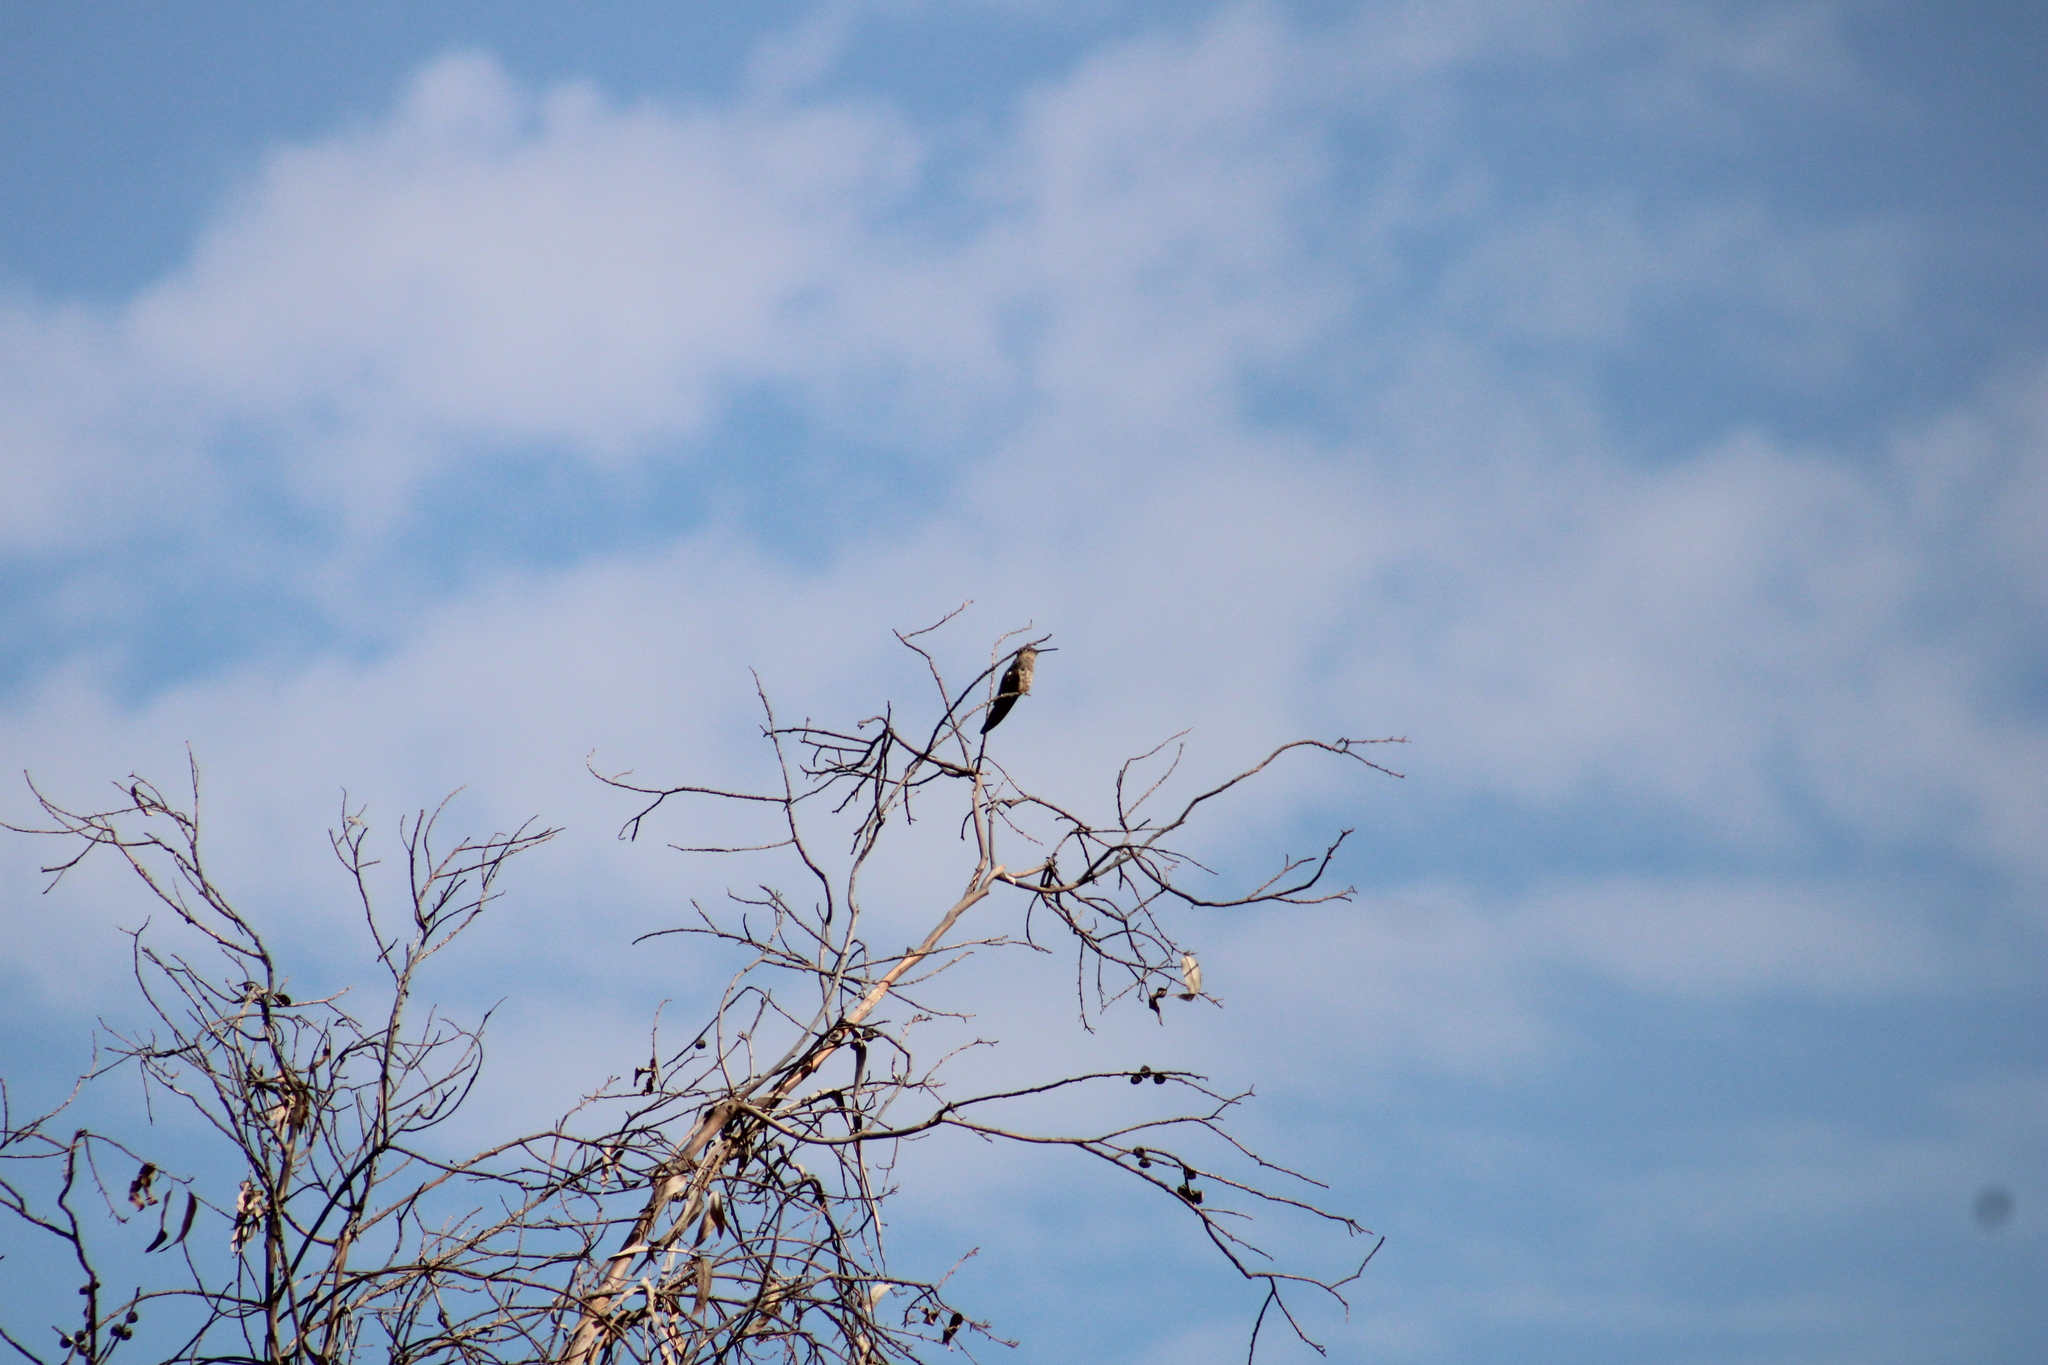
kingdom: Animalia
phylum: Chordata
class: Aves
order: Apodiformes
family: Trochilidae
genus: Patagona
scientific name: Patagona gigas
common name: Giant hummingbird
